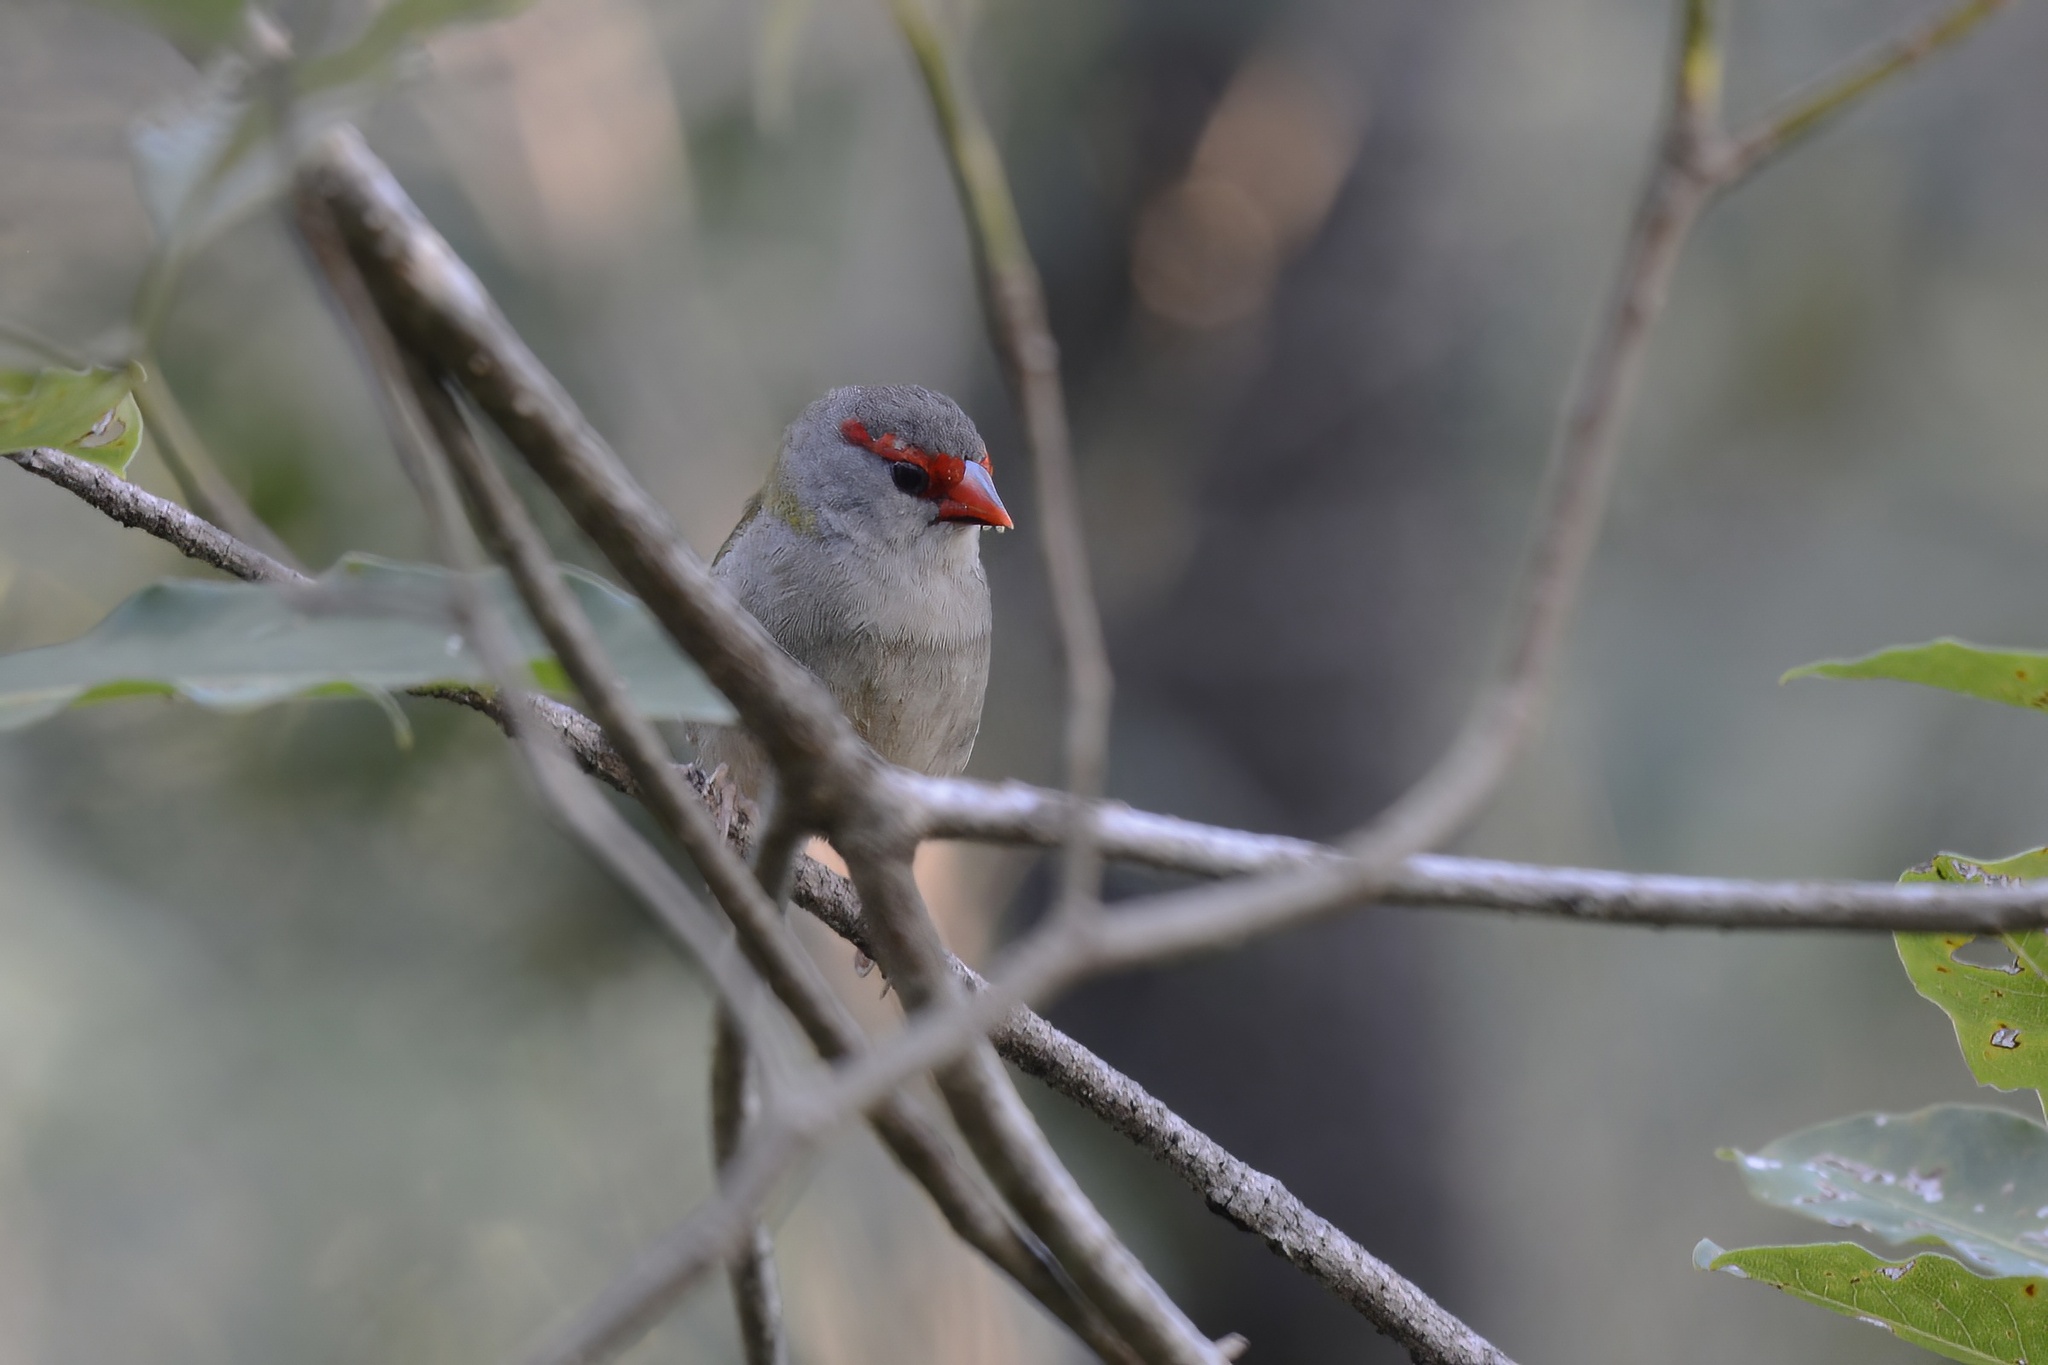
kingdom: Animalia
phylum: Chordata
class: Aves
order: Passeriformes
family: Estrildidae
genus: Neochmia
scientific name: Neochmia temporalis
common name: Red-browed finch
